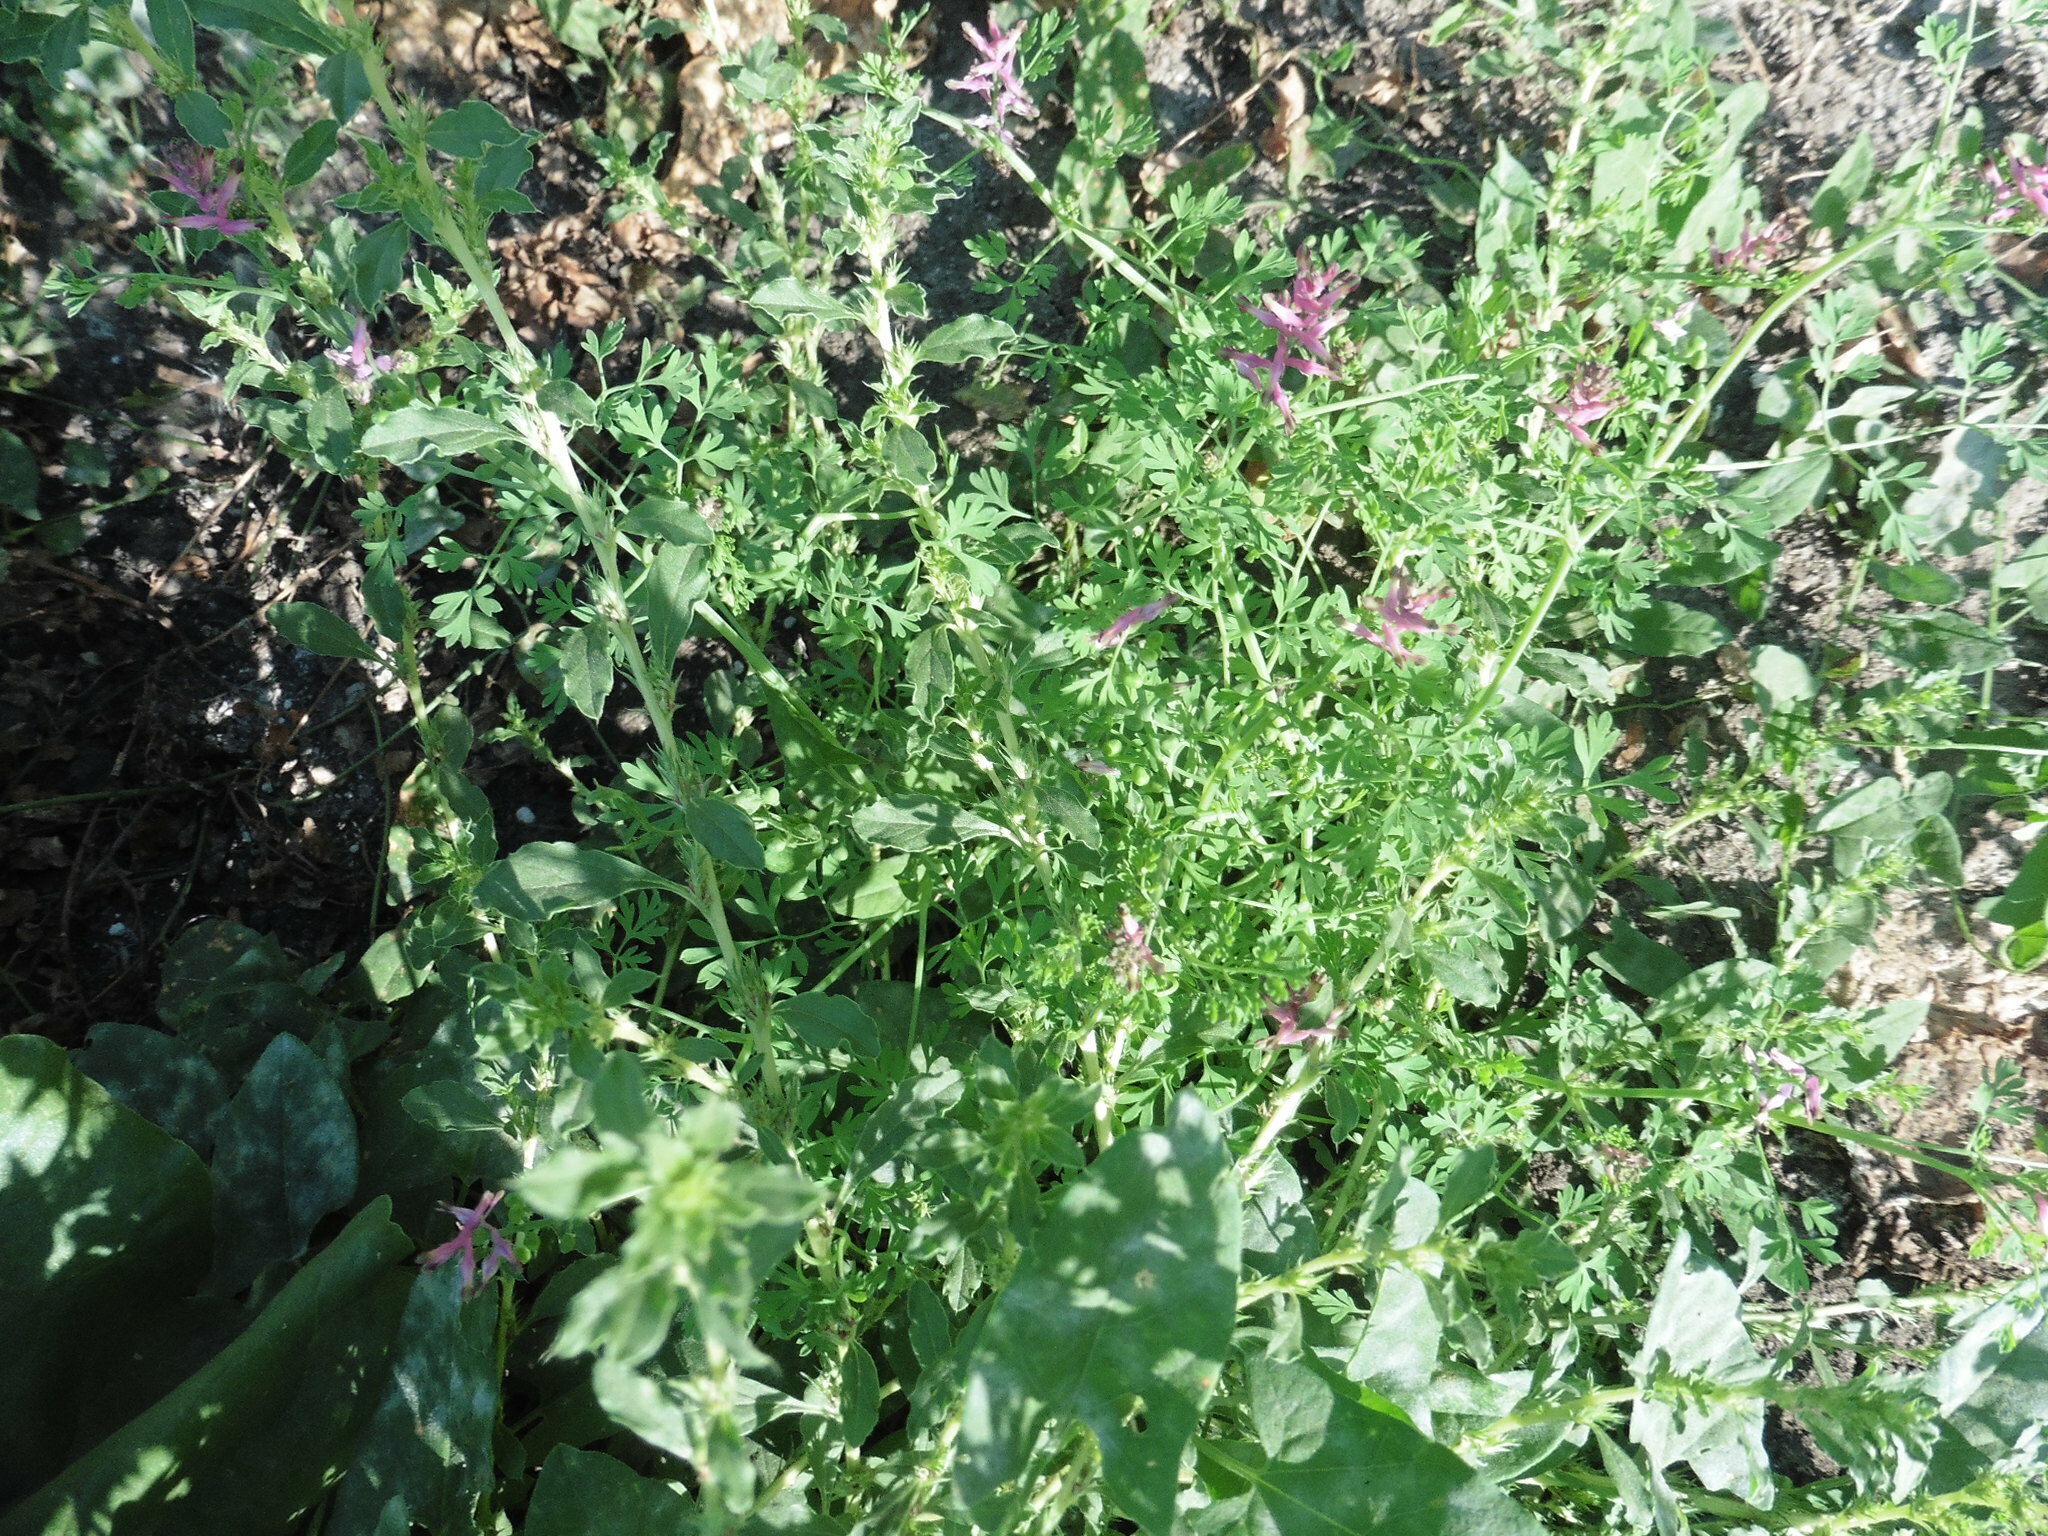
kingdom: Plantae
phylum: Tracheophyta
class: Magnoliopsida
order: Ranunculales
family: Papaveraceae
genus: Fumaria
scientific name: Fumaria officinalis
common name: Common fumitory
